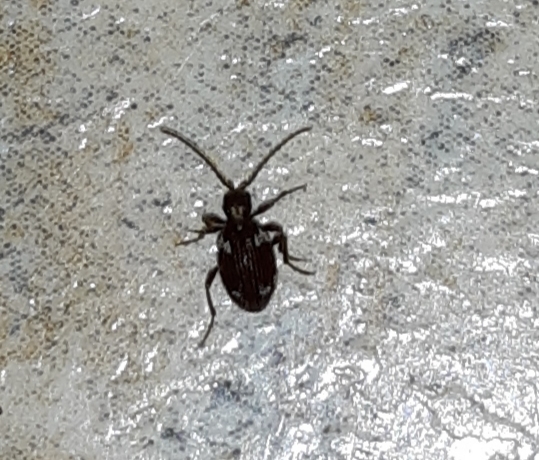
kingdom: Animalia
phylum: Arthropoda
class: Insecta
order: Coleoptera
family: Ptinidae
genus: Ptinus
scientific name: Ptinus fur
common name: White-marked spider beetle
